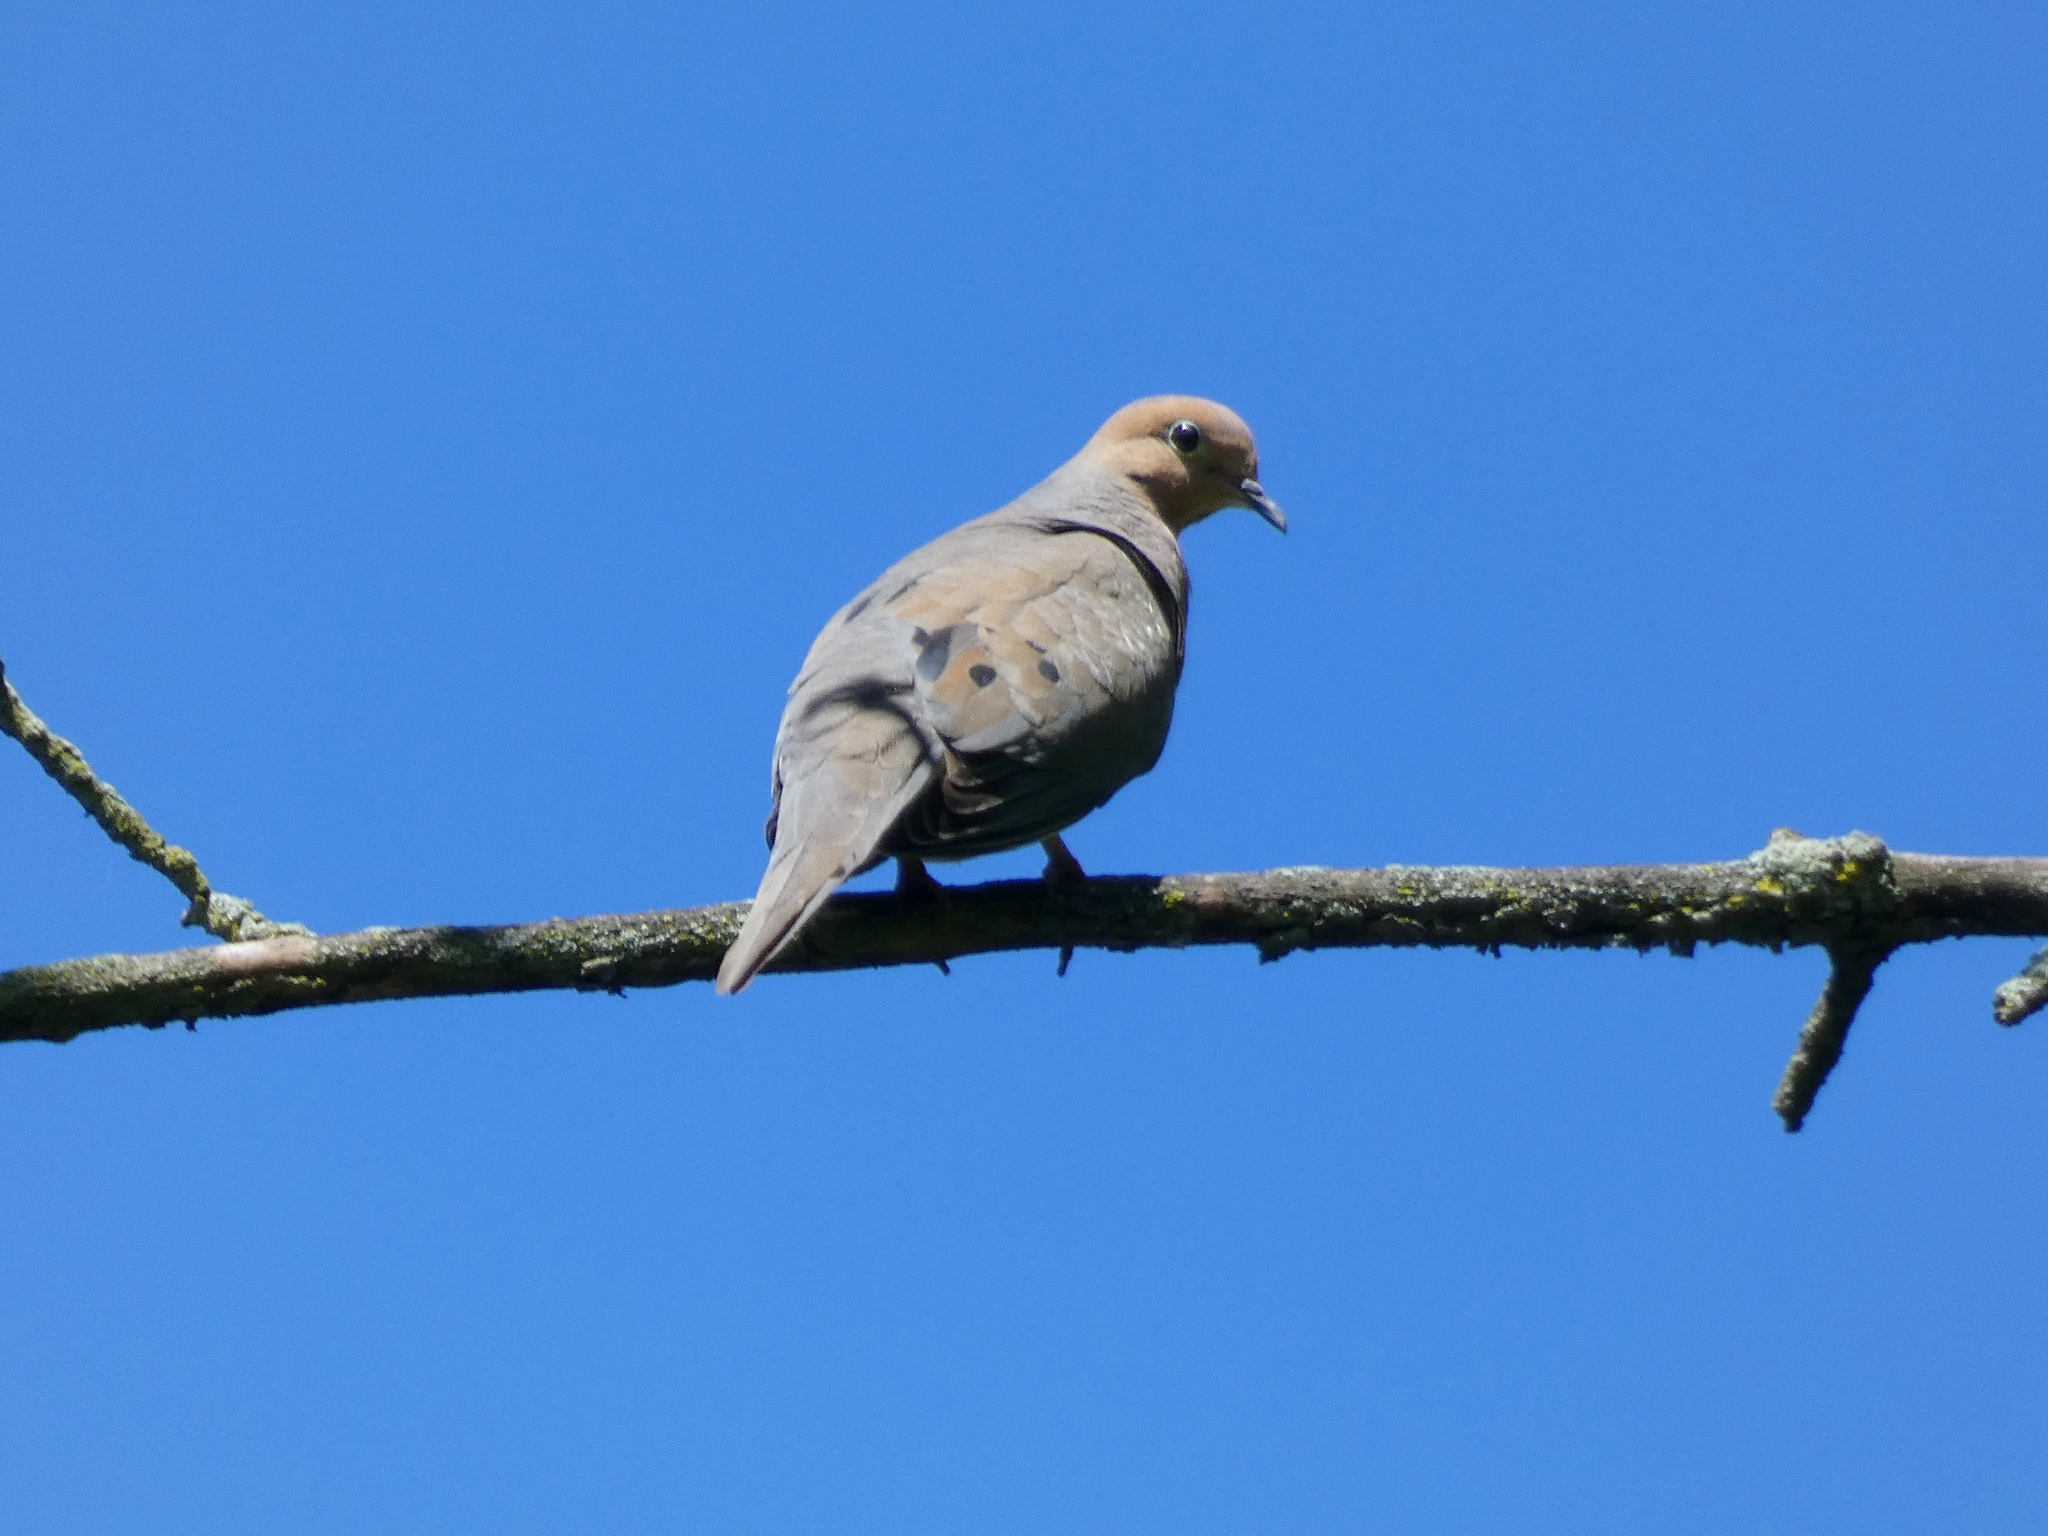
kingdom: Animalia
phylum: Chordata
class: Aves
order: Columbiformes
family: Columbidae
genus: Zenaida
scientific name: Zenaida macroura
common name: Mourning dove
